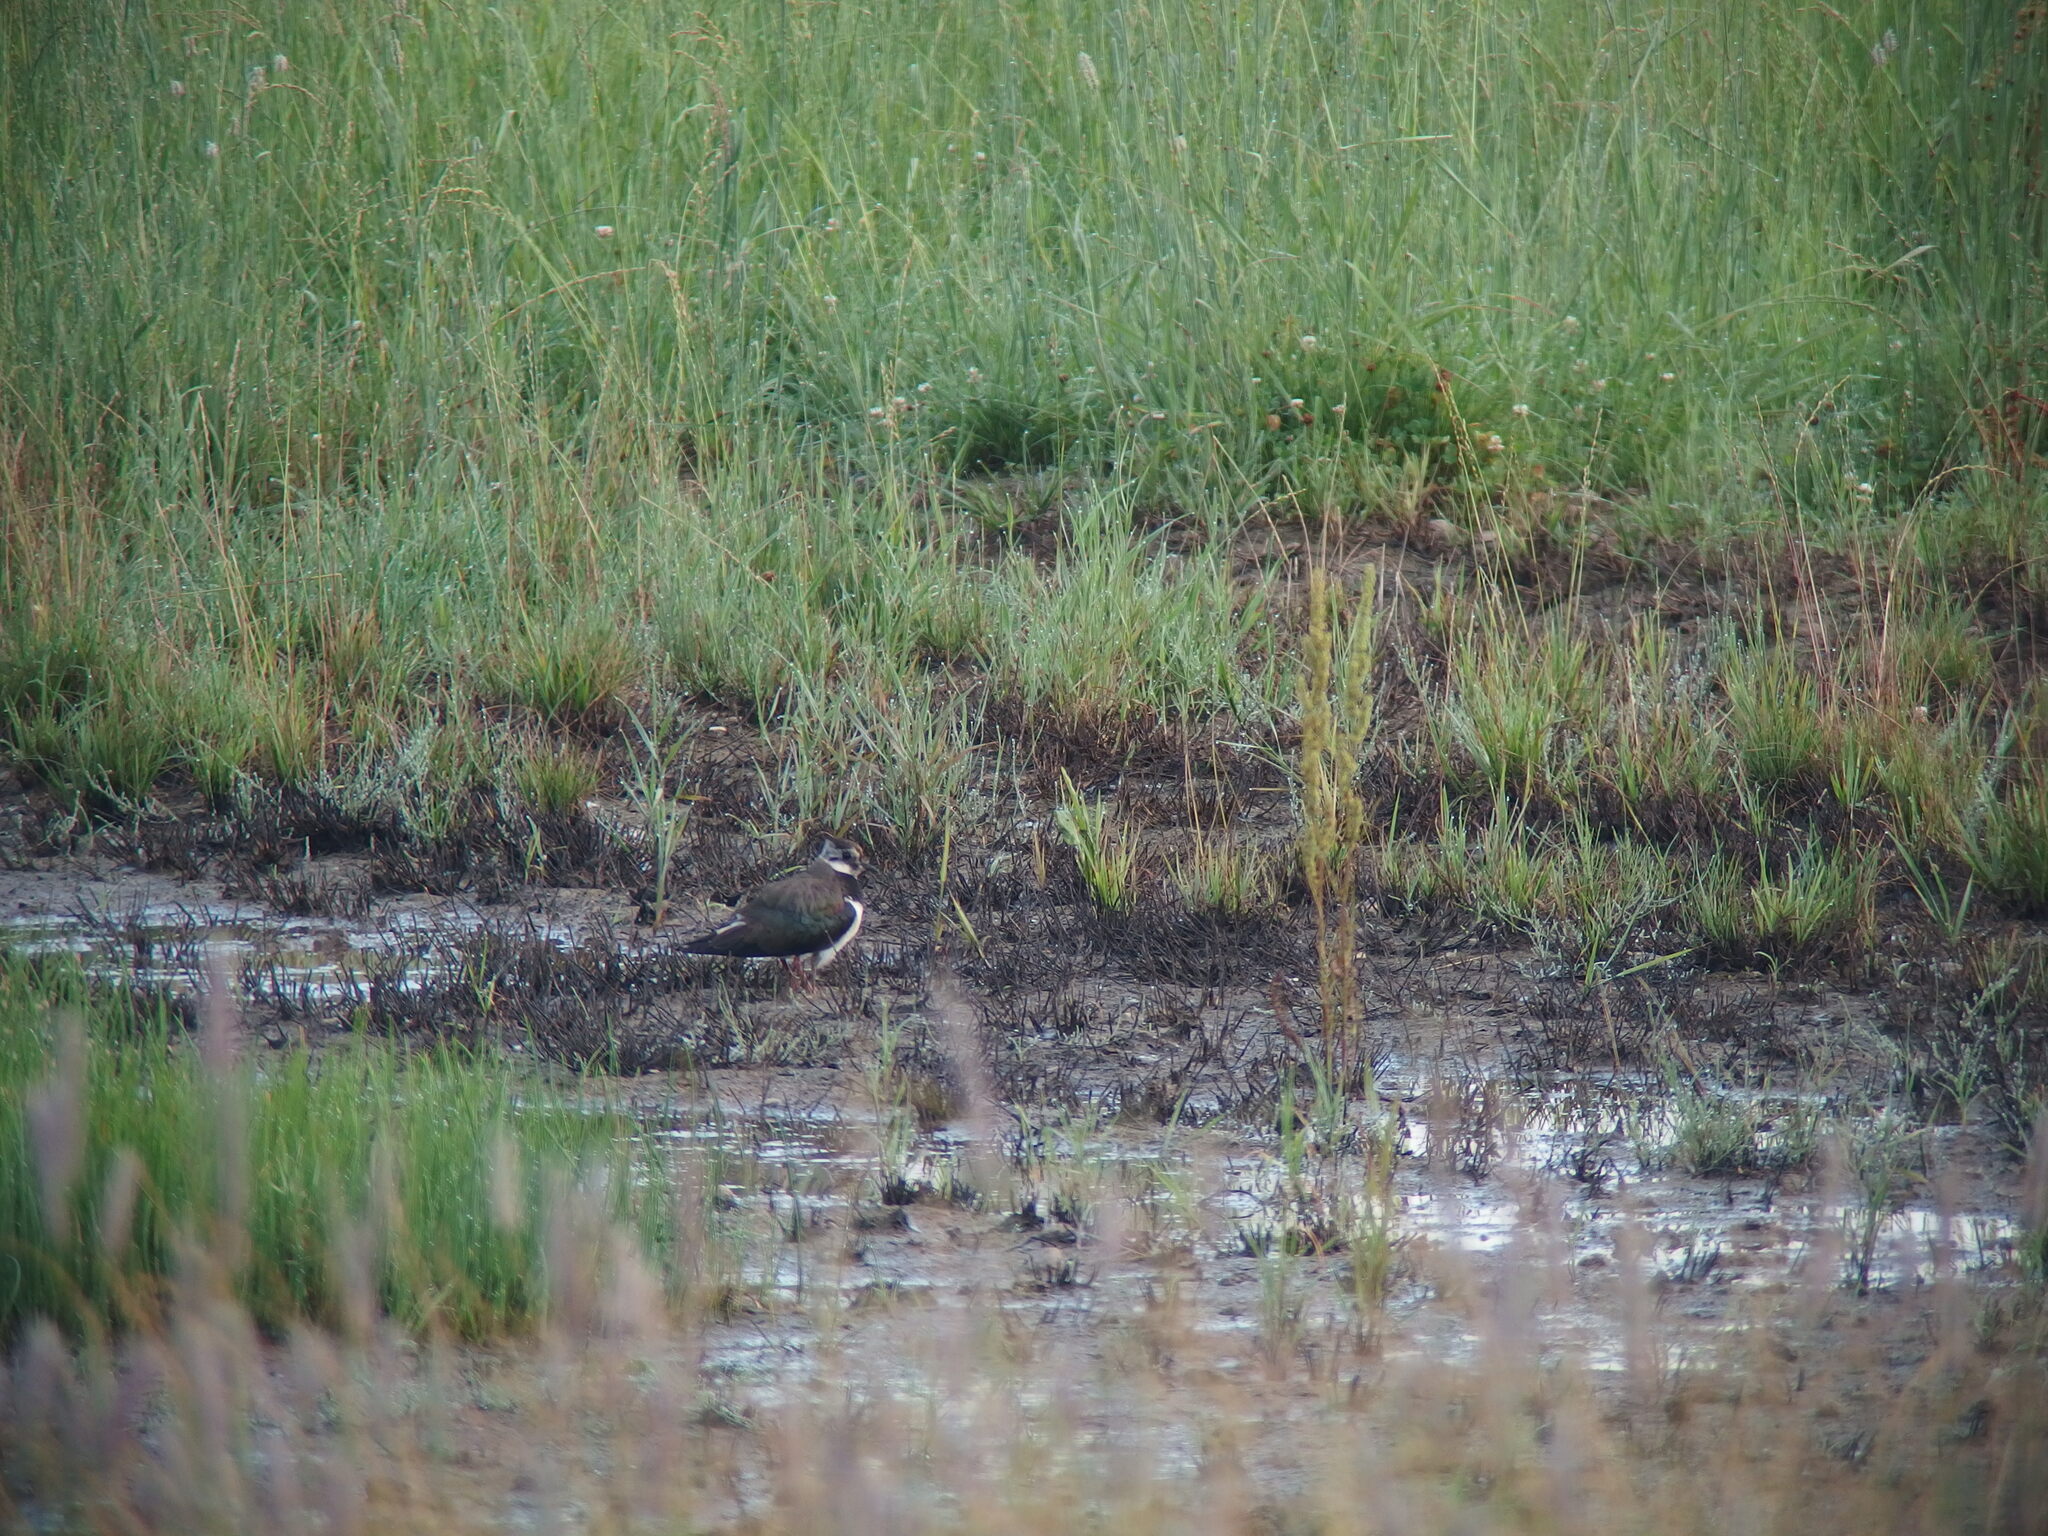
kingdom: Animalia
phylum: Chordata
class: Aves
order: Charadriiformes
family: Charadriidae
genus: Vanellus
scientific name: Vanellus vanellus
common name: Northern lapwing
